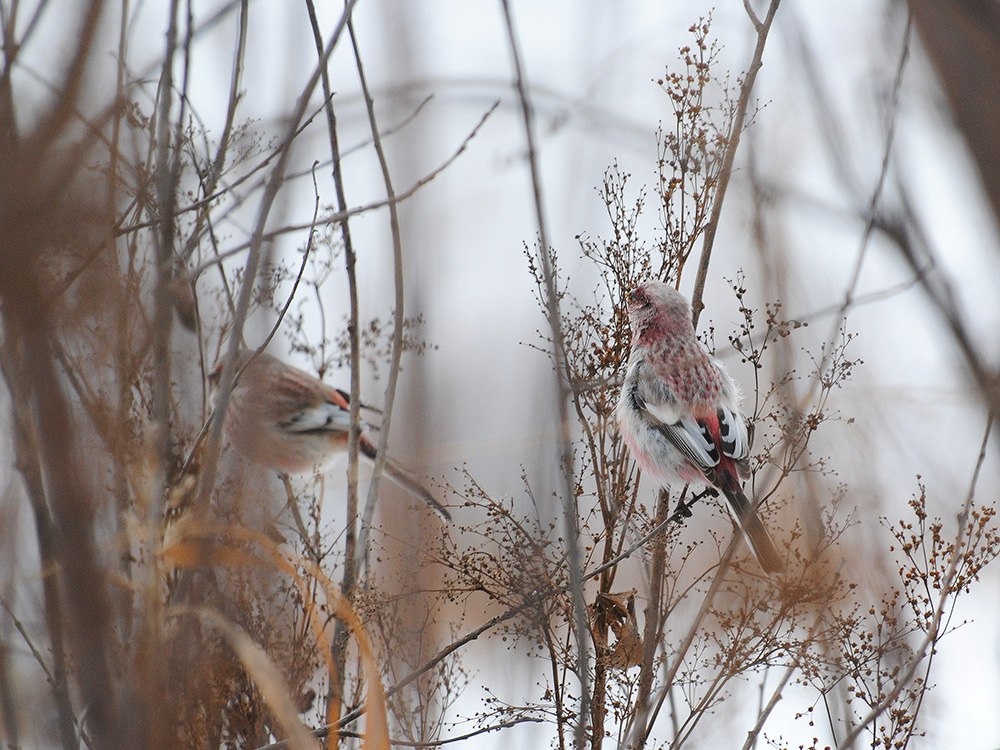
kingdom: Animalia
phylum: Chordata
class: Aves
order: Passeriformes
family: Fringillidae
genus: Carpodacus
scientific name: Carpodacus sibiricus
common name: Long-tailed rosefinch
